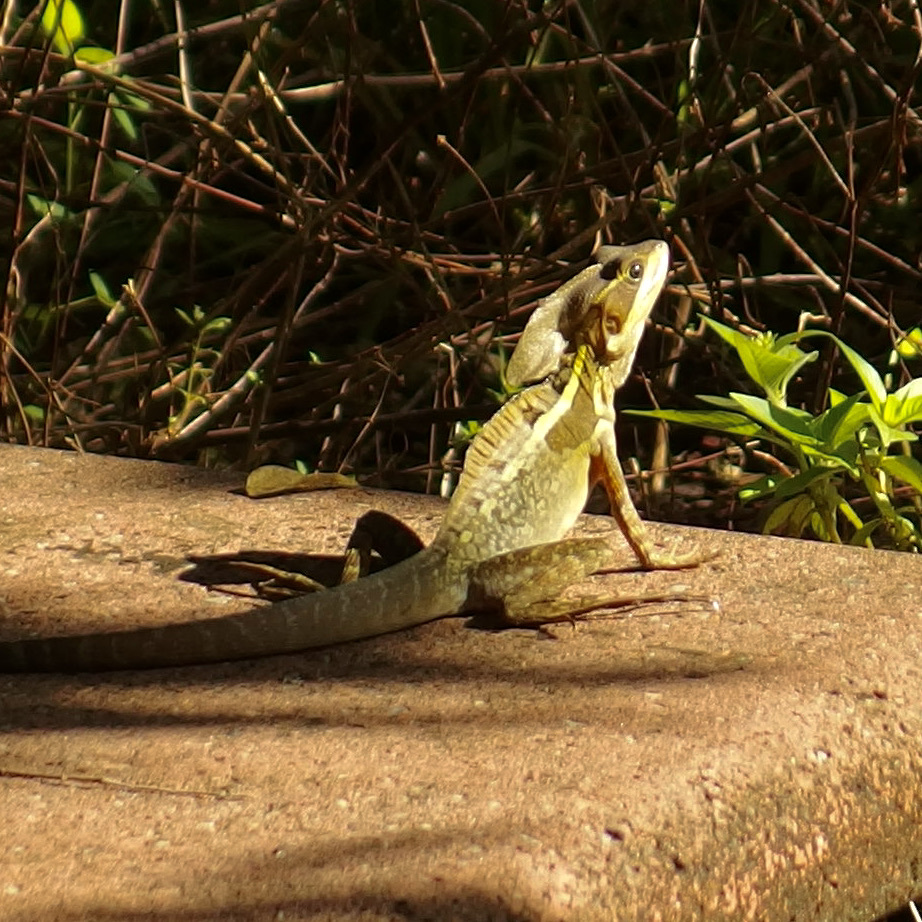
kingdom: Animalia
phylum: Chordata
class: Squamata
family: Corytophanidae
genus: Basiliscus
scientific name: Basiliscus vittatus
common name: Brown basilisk
